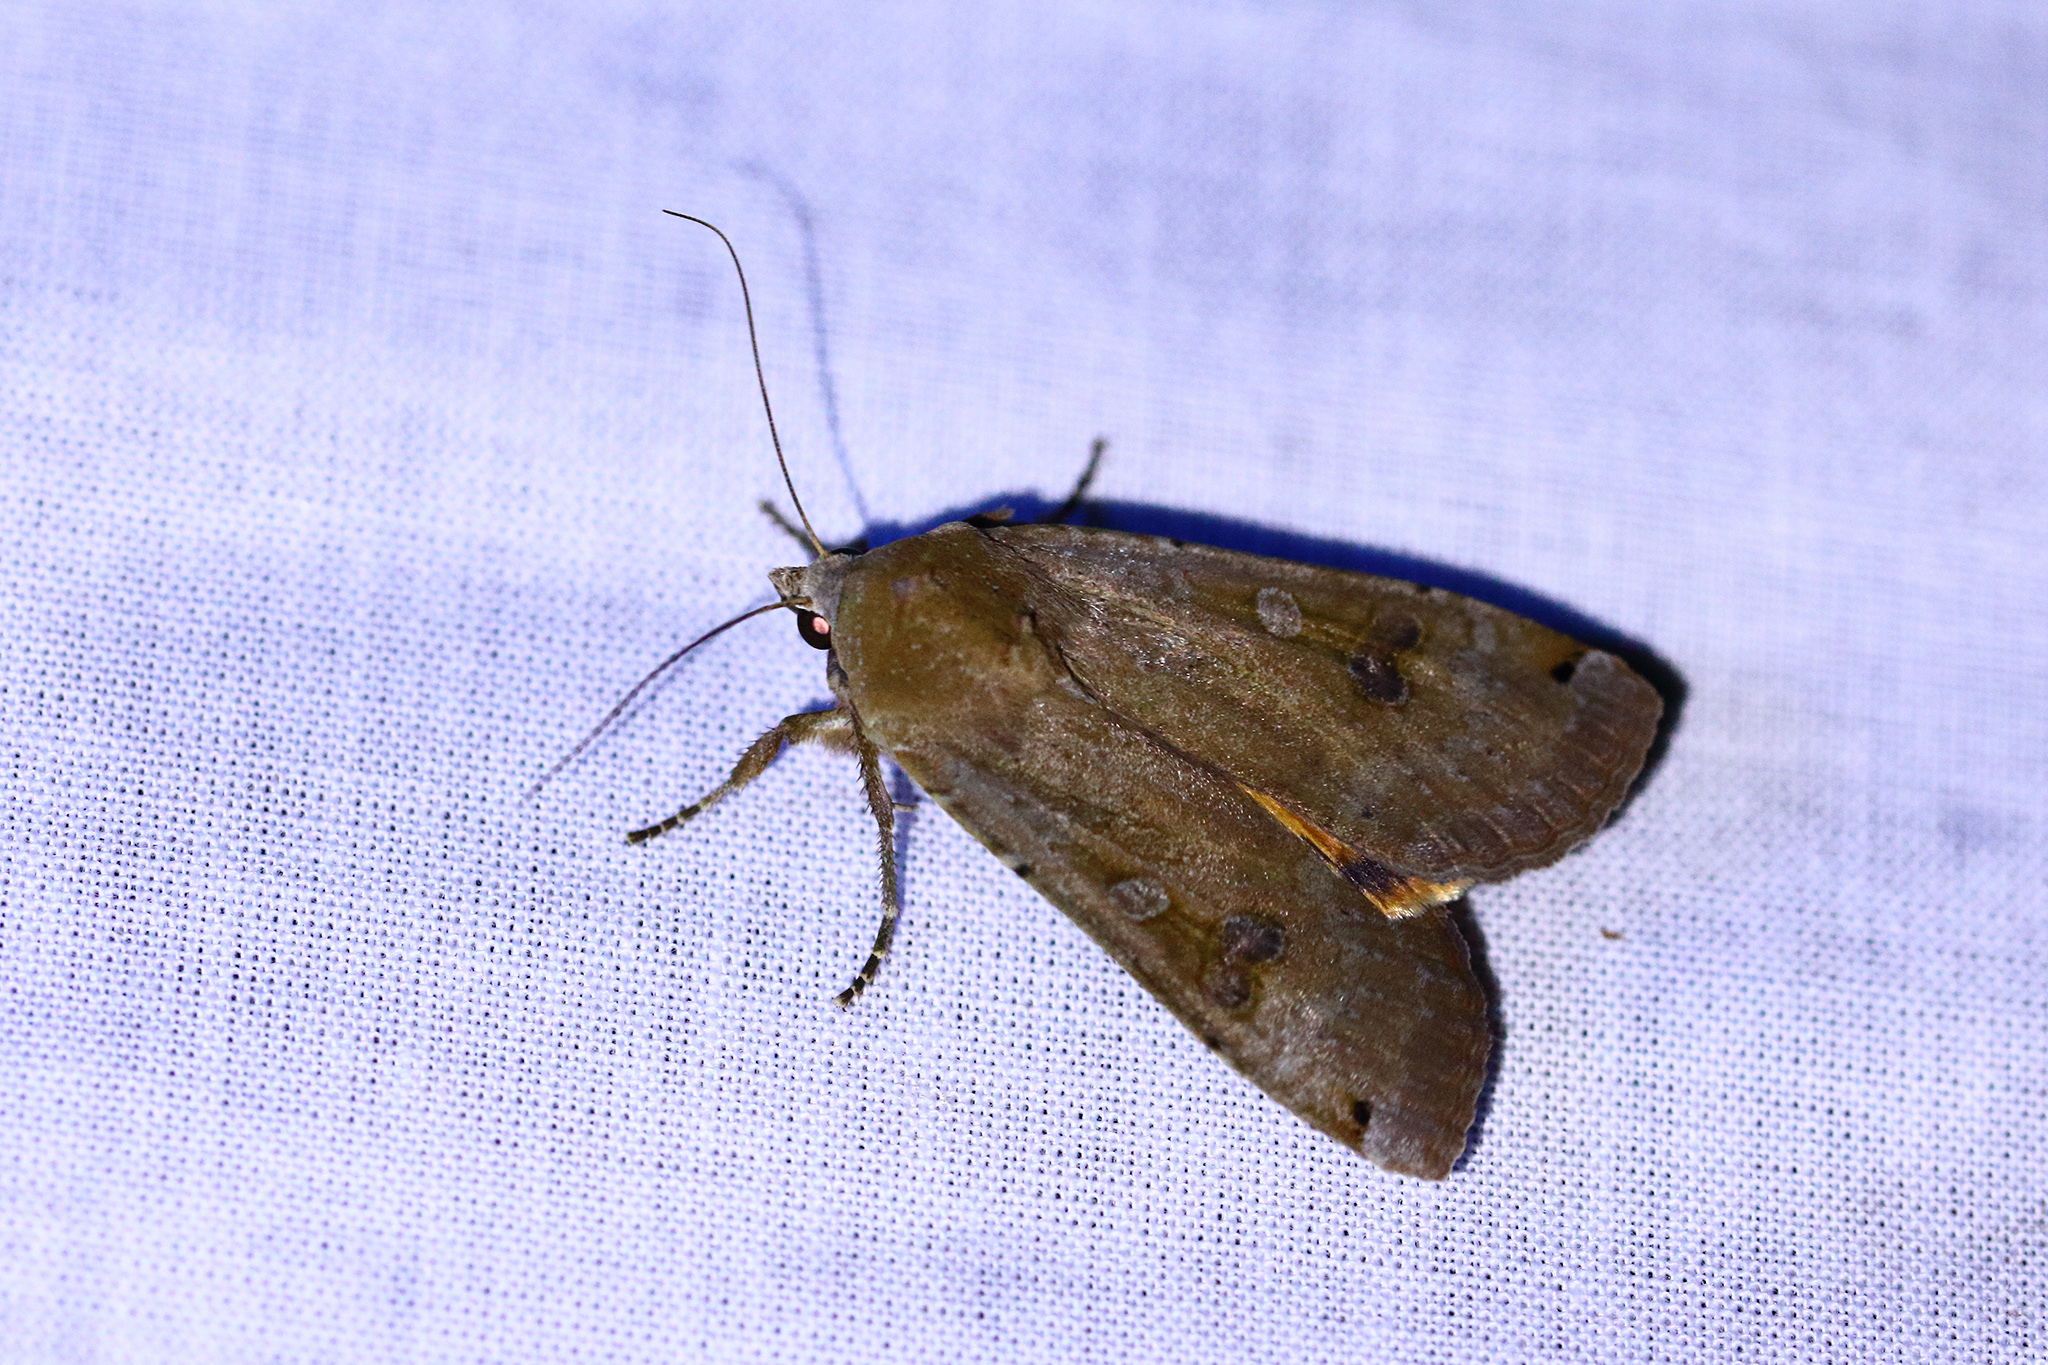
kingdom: Animalia
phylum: Arthropoda
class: Insecta
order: Lepidoptera
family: Noctuidae
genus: Noctua
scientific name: Noctua pronuba
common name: Large yellow underwing
